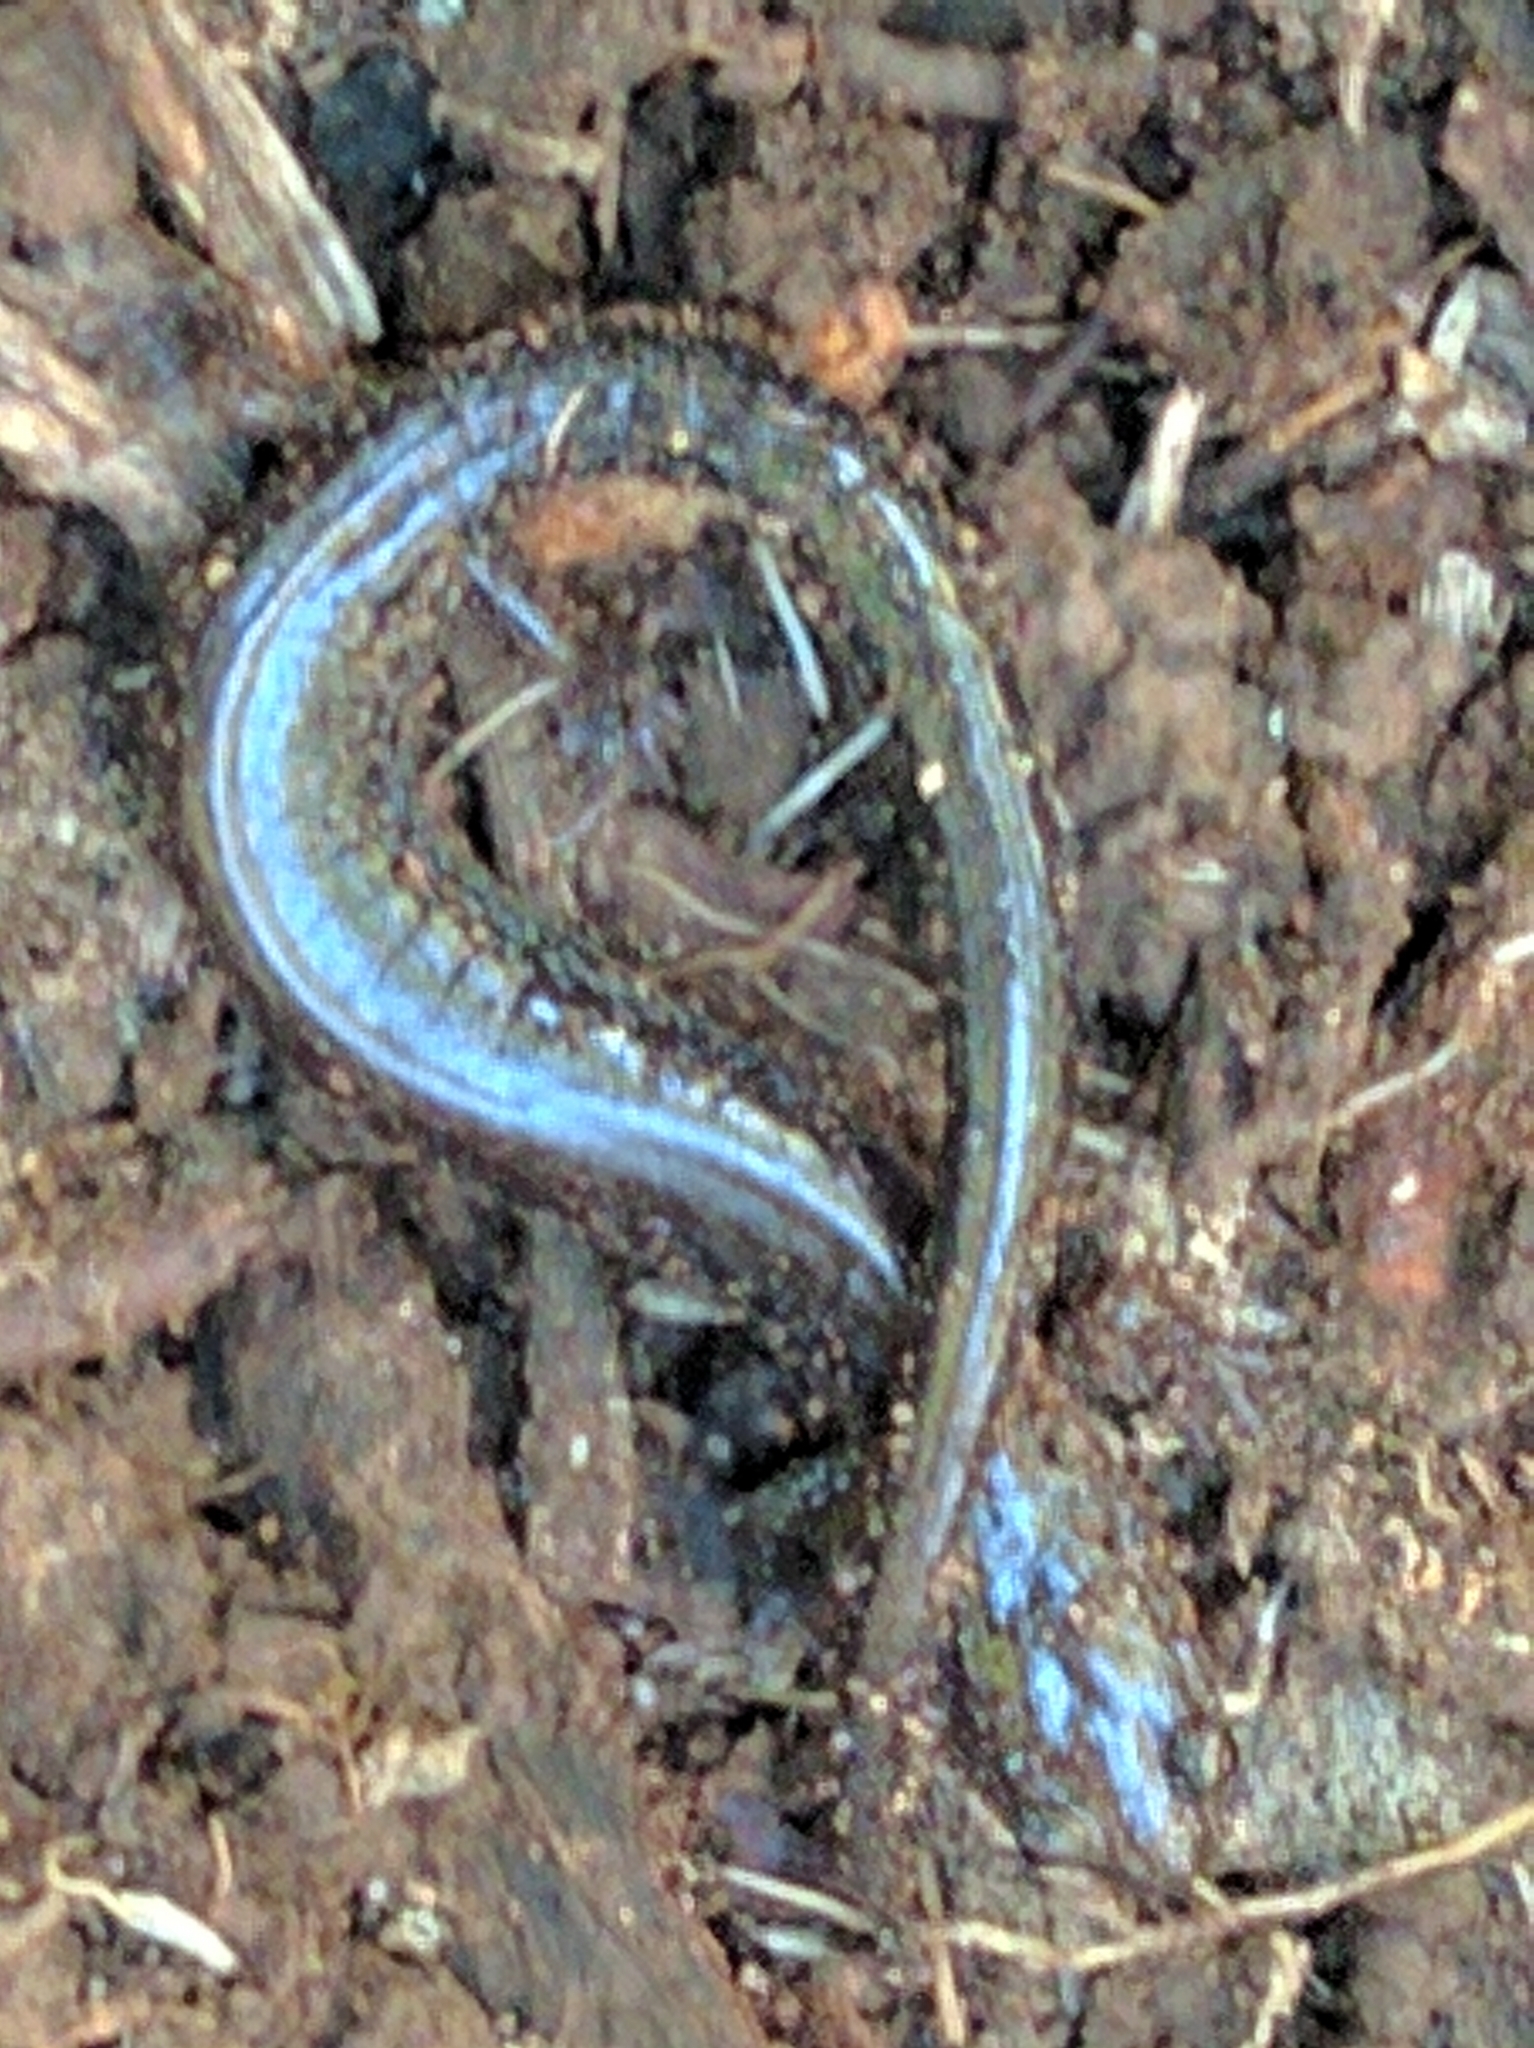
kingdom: Animalia
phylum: Chordata
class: Amphibia
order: Caudata
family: Plethodontidae
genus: Plethodon
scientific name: Plethodon cinereus
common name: Redback salamander
